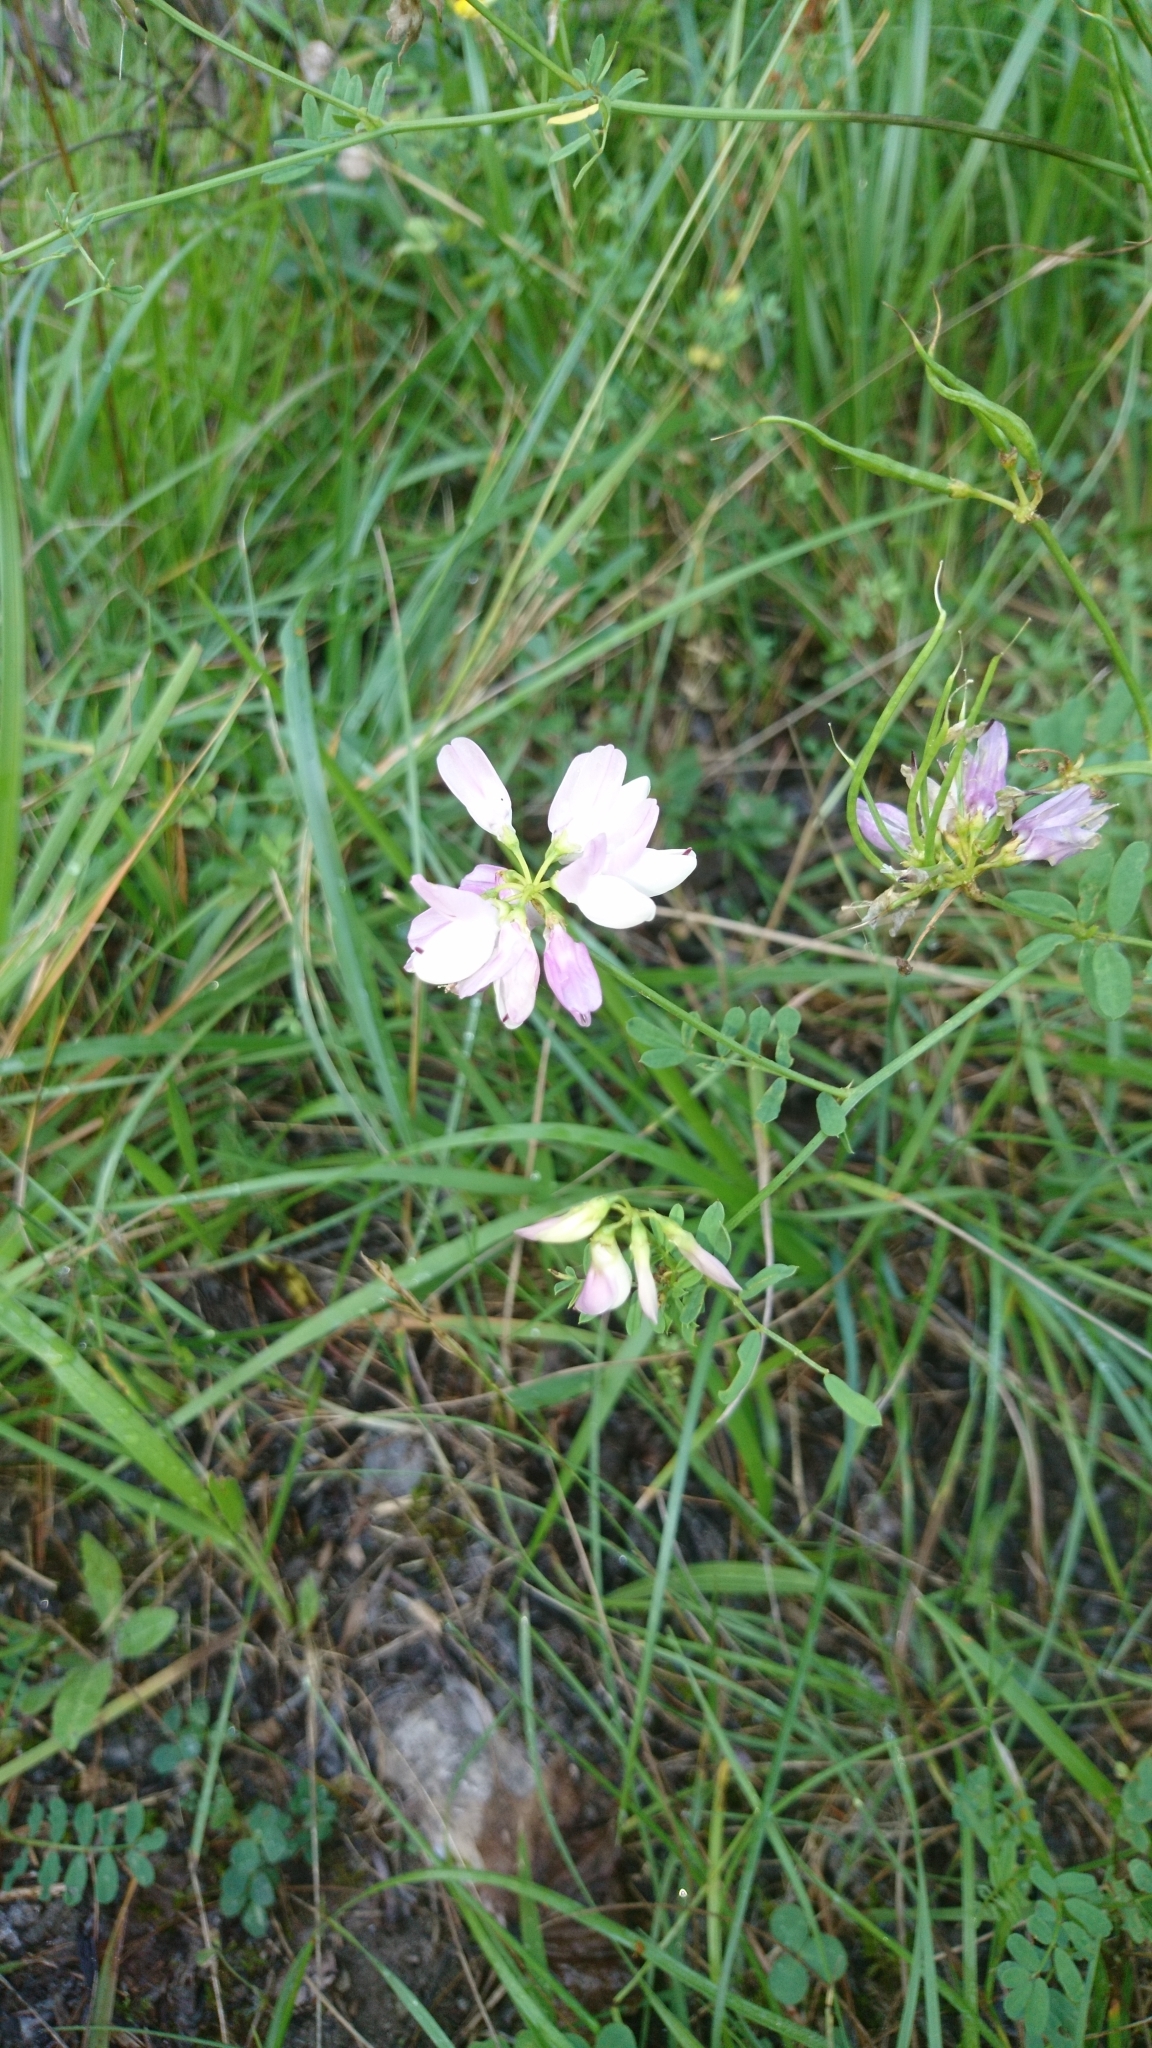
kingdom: Plantae
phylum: Tracheophyta
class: Magnoliopsida
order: Fabales
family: Fabaceae
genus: Coronilla
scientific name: Coronilla varia
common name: Crownvetch
